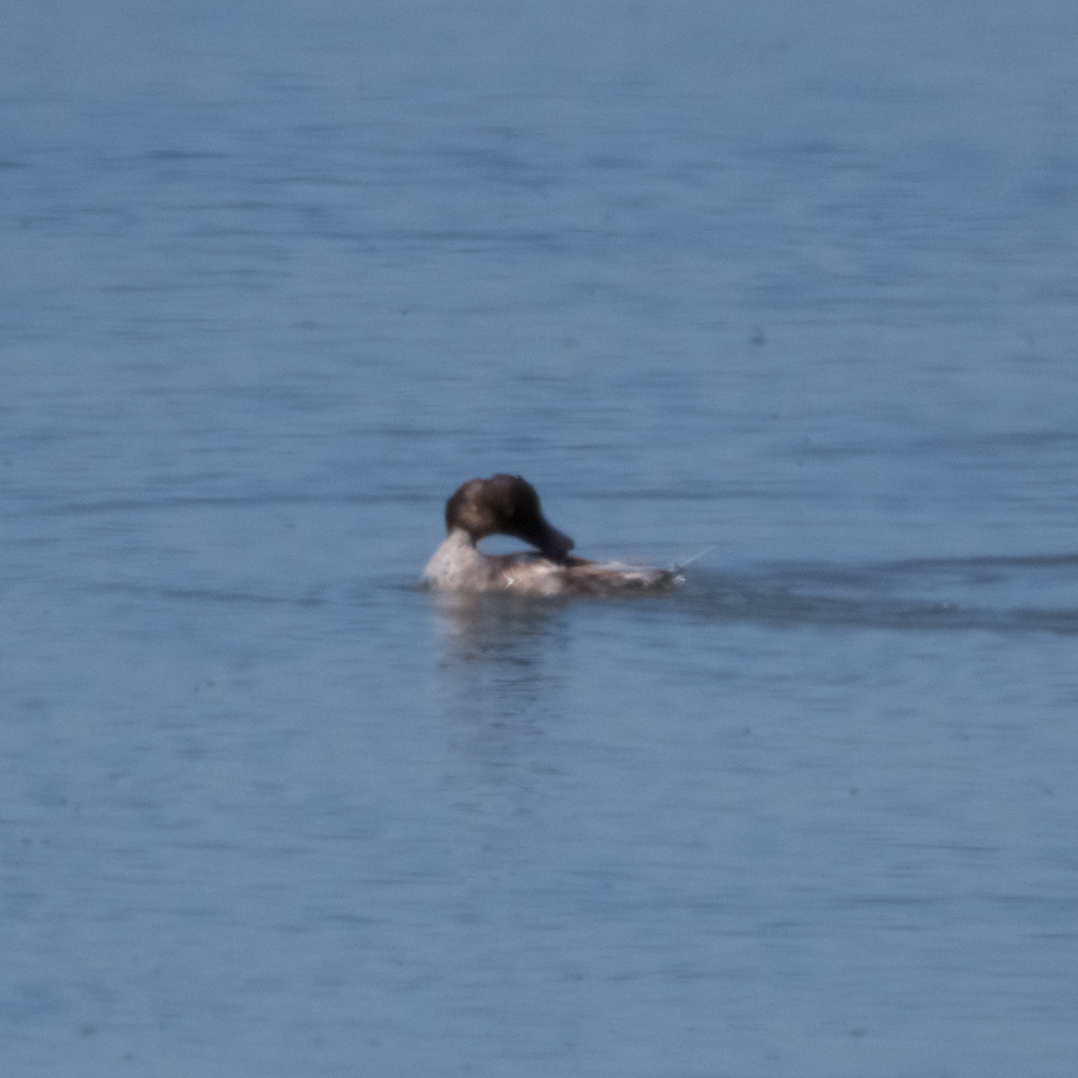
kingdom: Animalia
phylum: Chordata
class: Aves
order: Anseriformes
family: Anatidae
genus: Bucephala
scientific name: Bucephala clangula
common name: Common goldeneye
